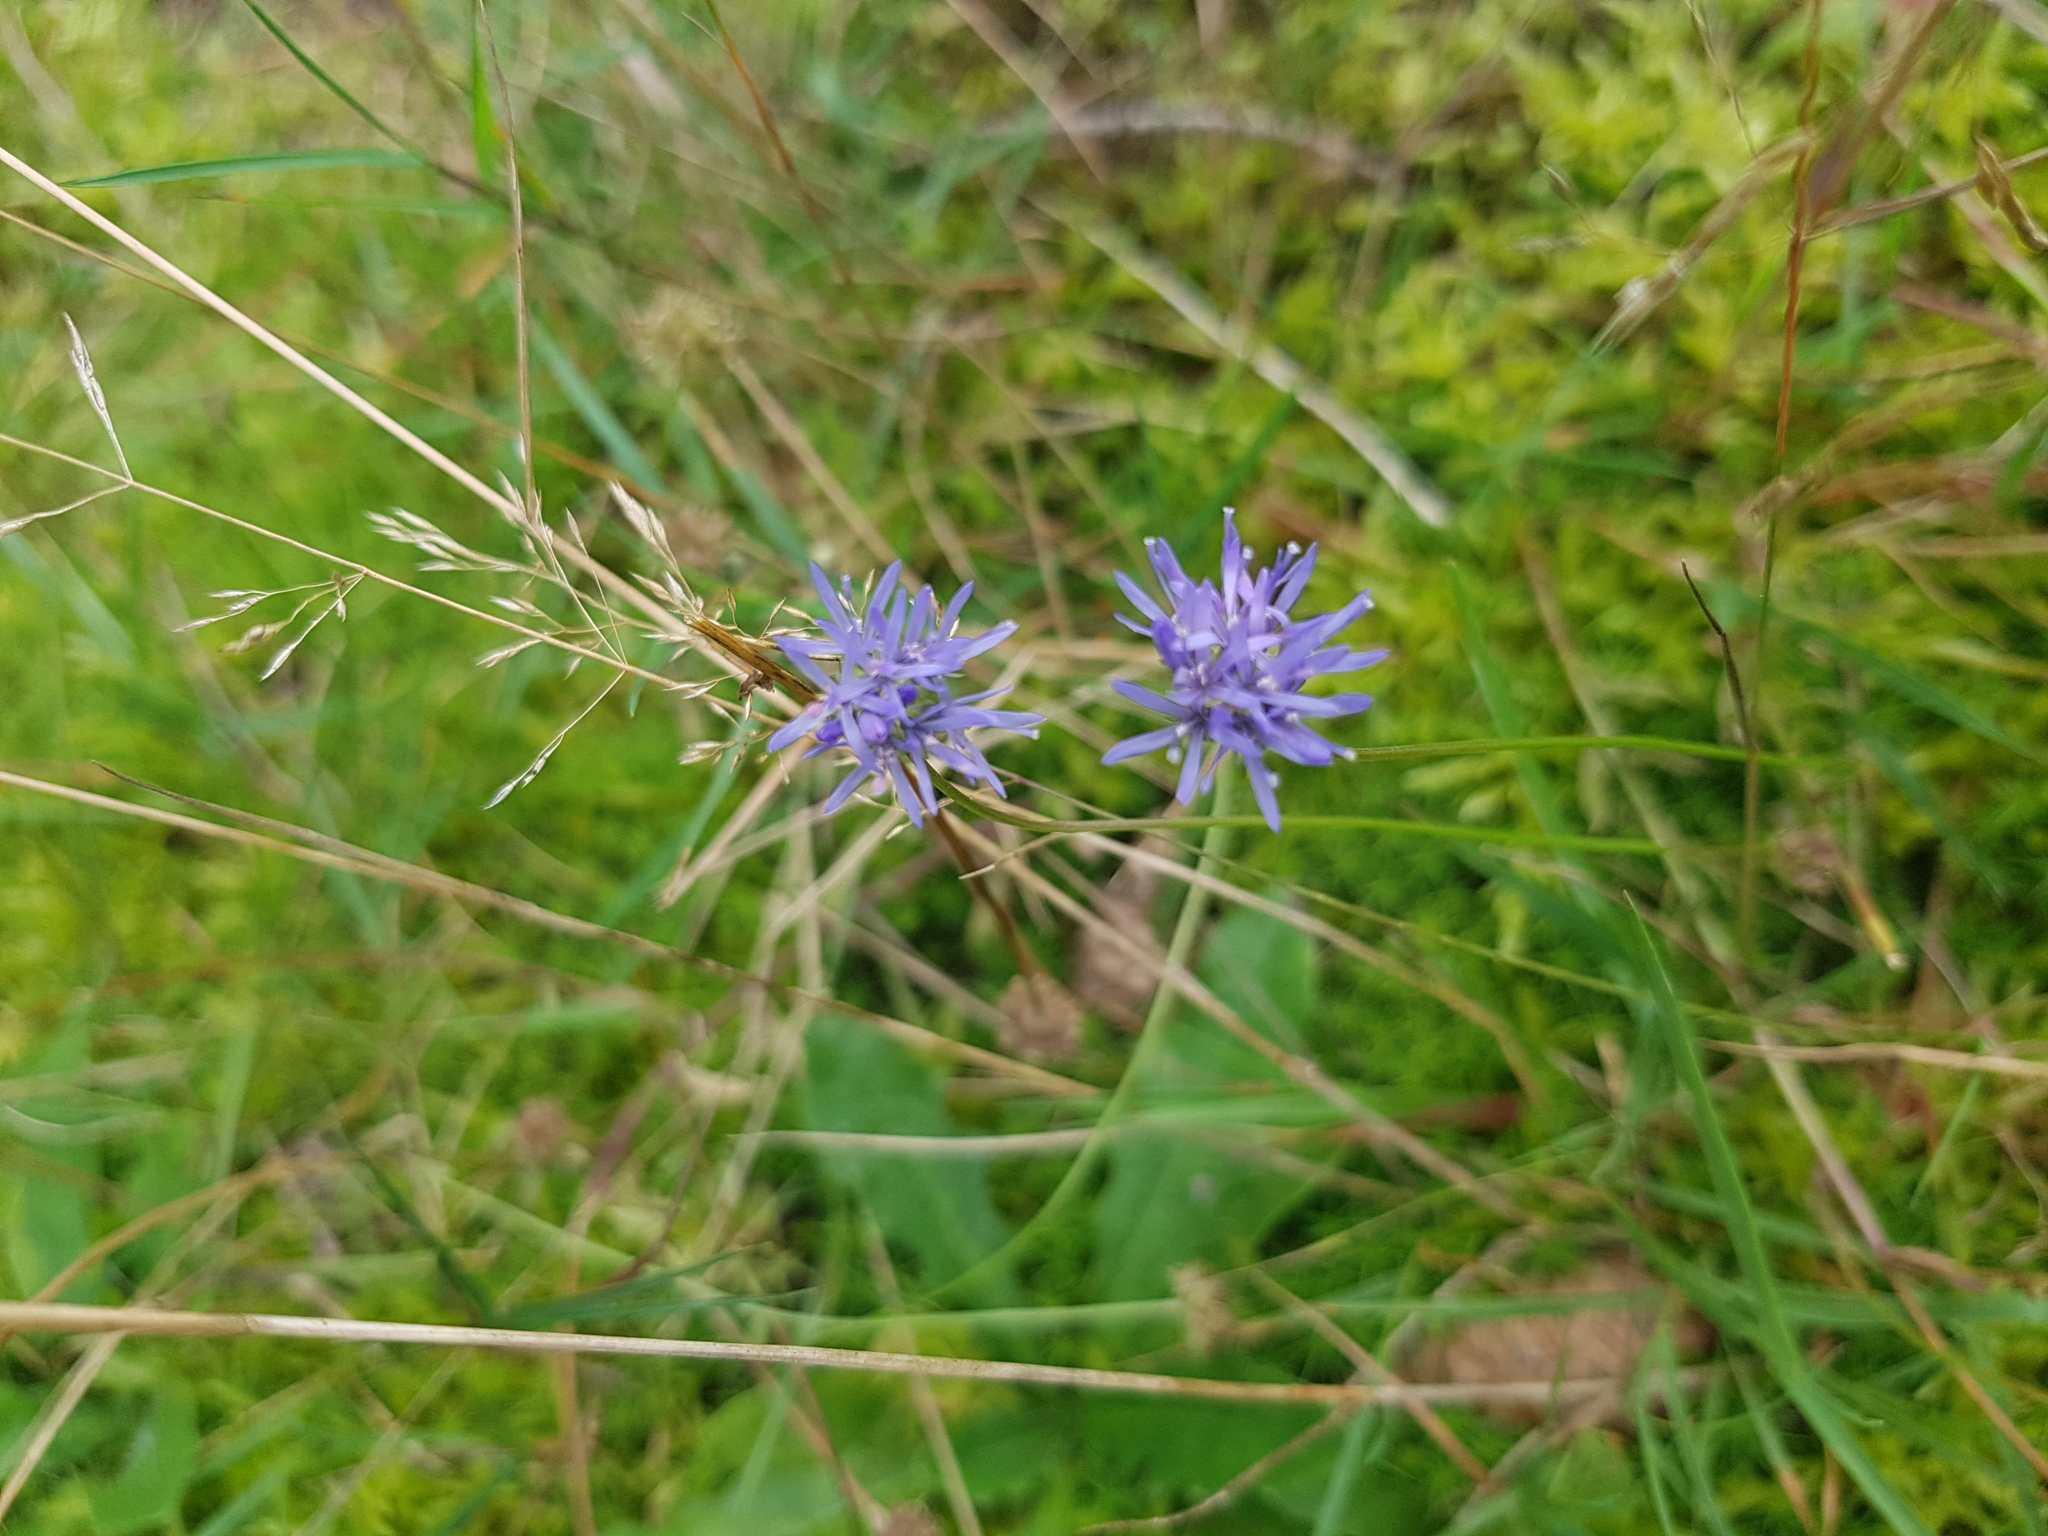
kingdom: Plantae
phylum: Tracheophyta
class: Magnoliopsida
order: Asterales
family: Campanulaceae
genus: Jasione
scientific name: Jasione montana
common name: Sheep's-bit
